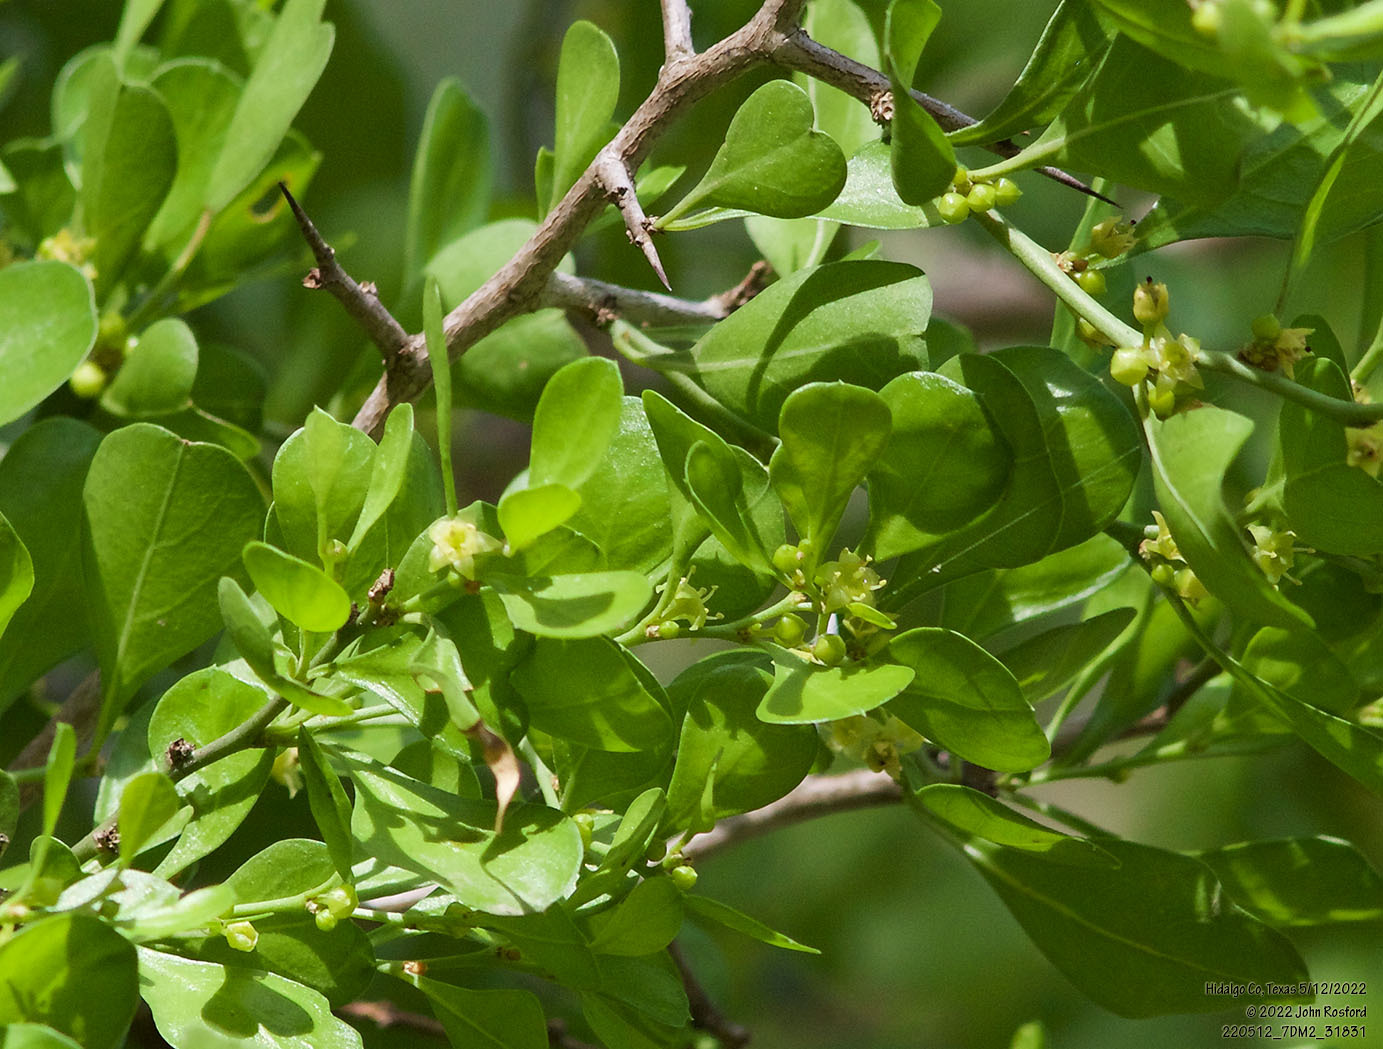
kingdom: Plantae
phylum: Tracheophyta
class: Magnoliopsida
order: Rosales
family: Rhamnaceae
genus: Condalia
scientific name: Condalia hookeri
